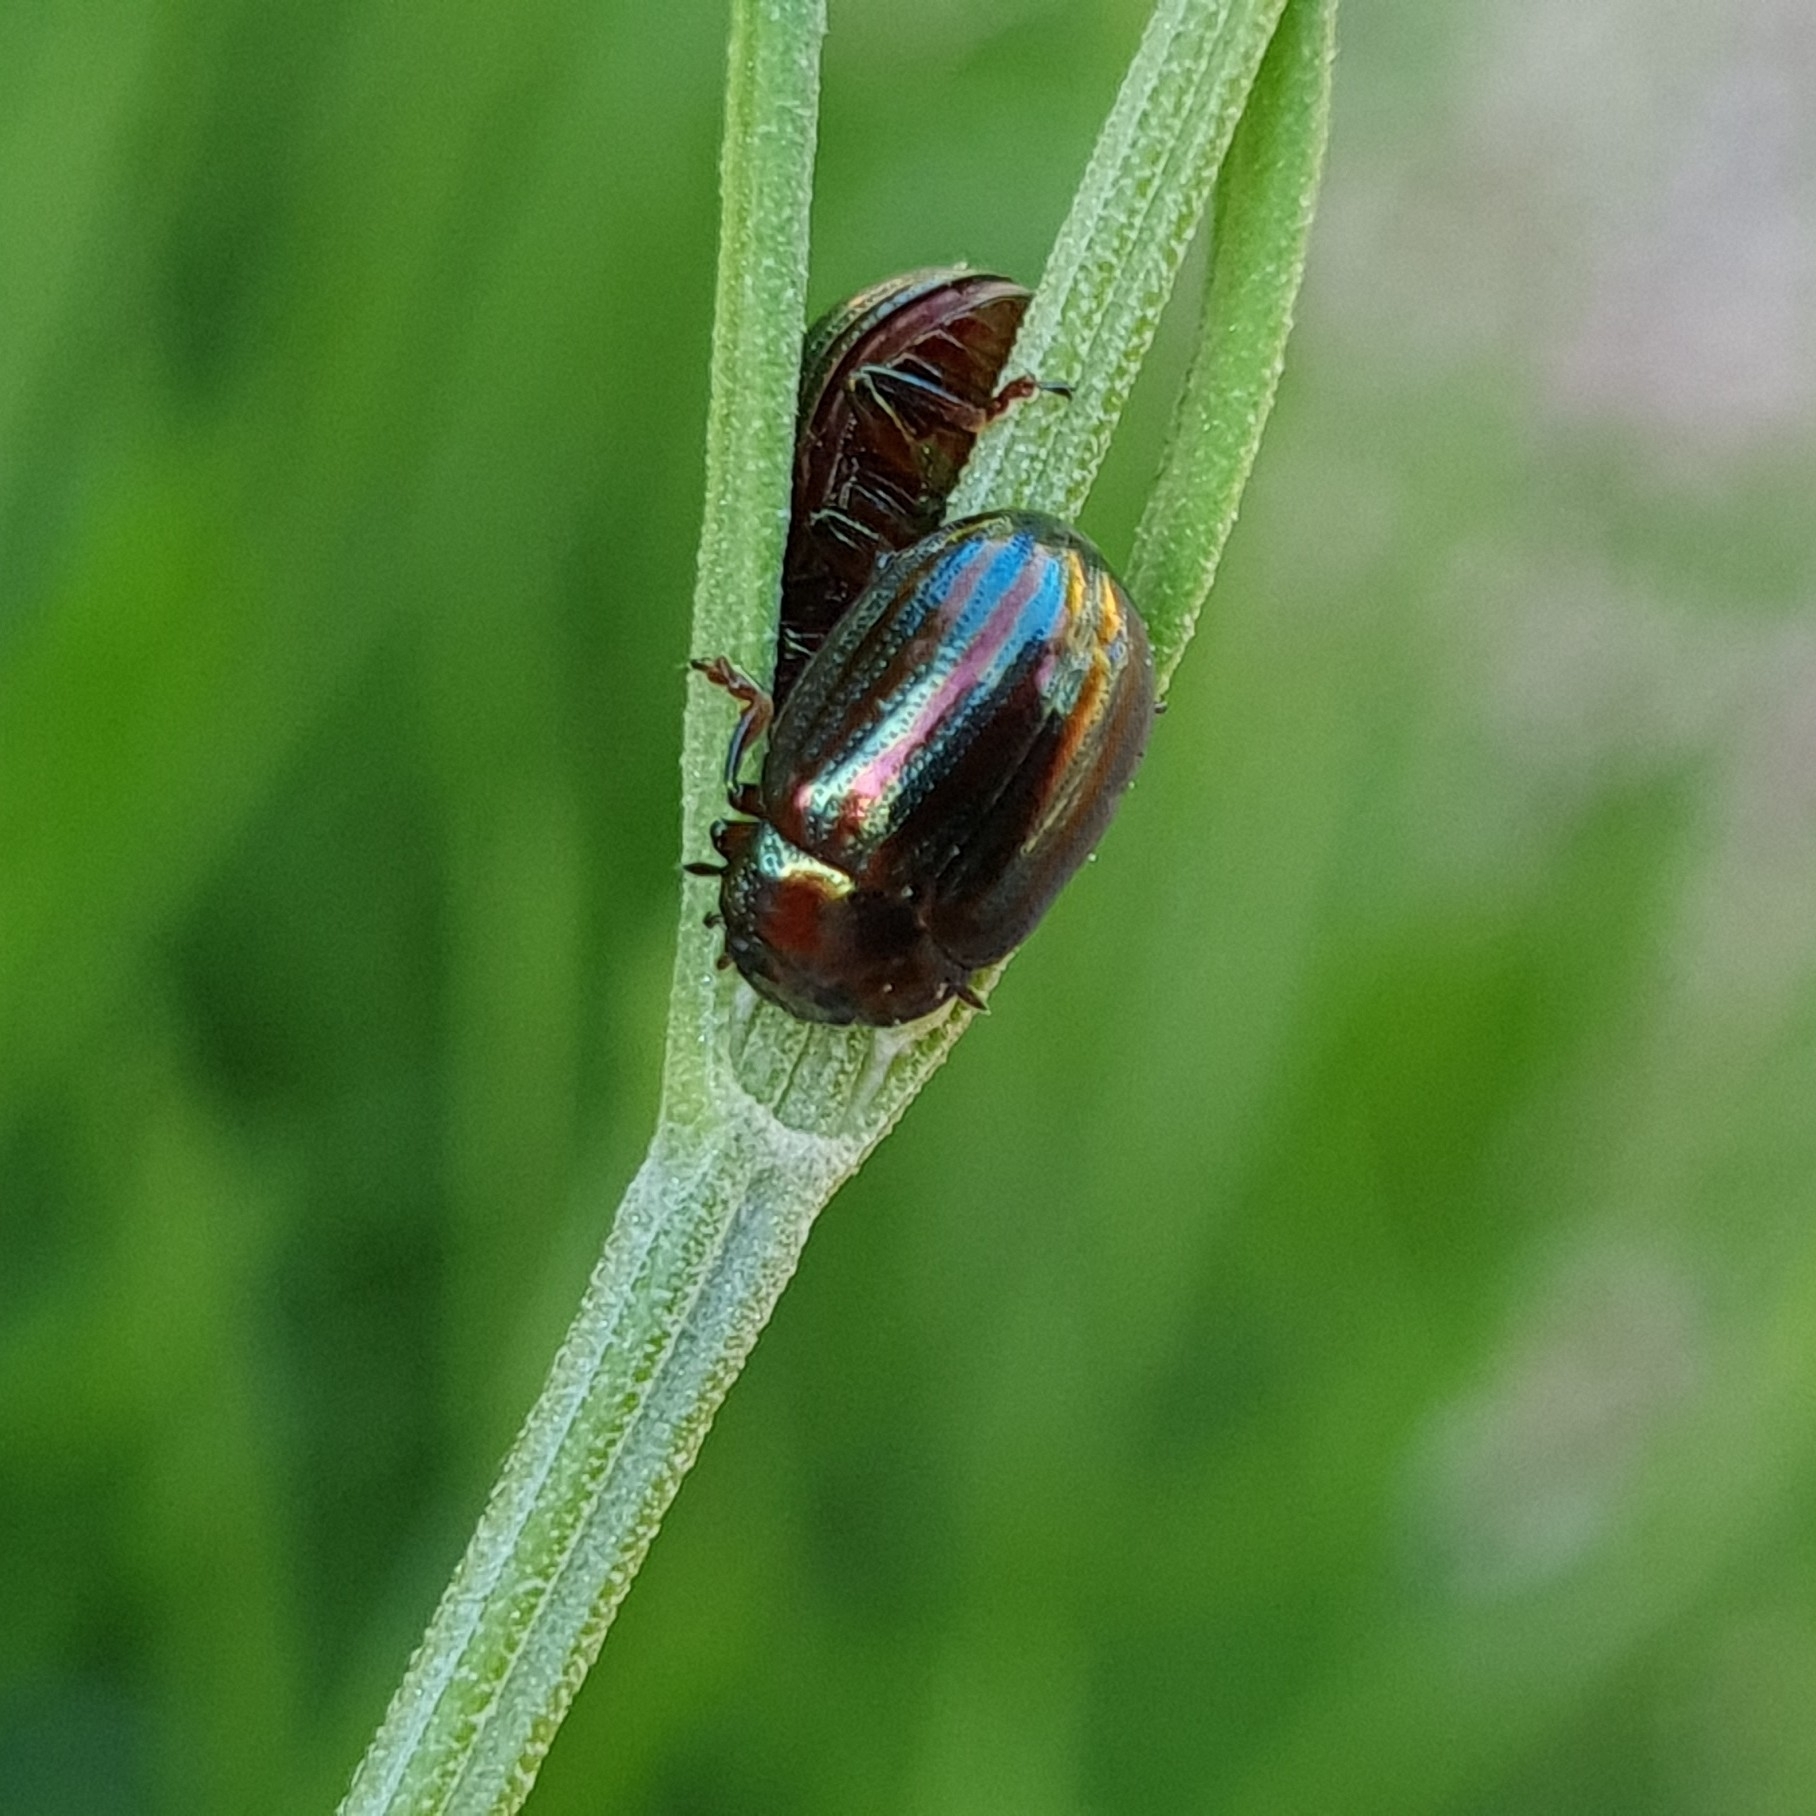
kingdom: Animalia
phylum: Arthropoda
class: Insecta
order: Coleoptera
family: Chrysomelidae
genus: Chrysolina
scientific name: Chrysolina americana
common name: Rosemary beetle
